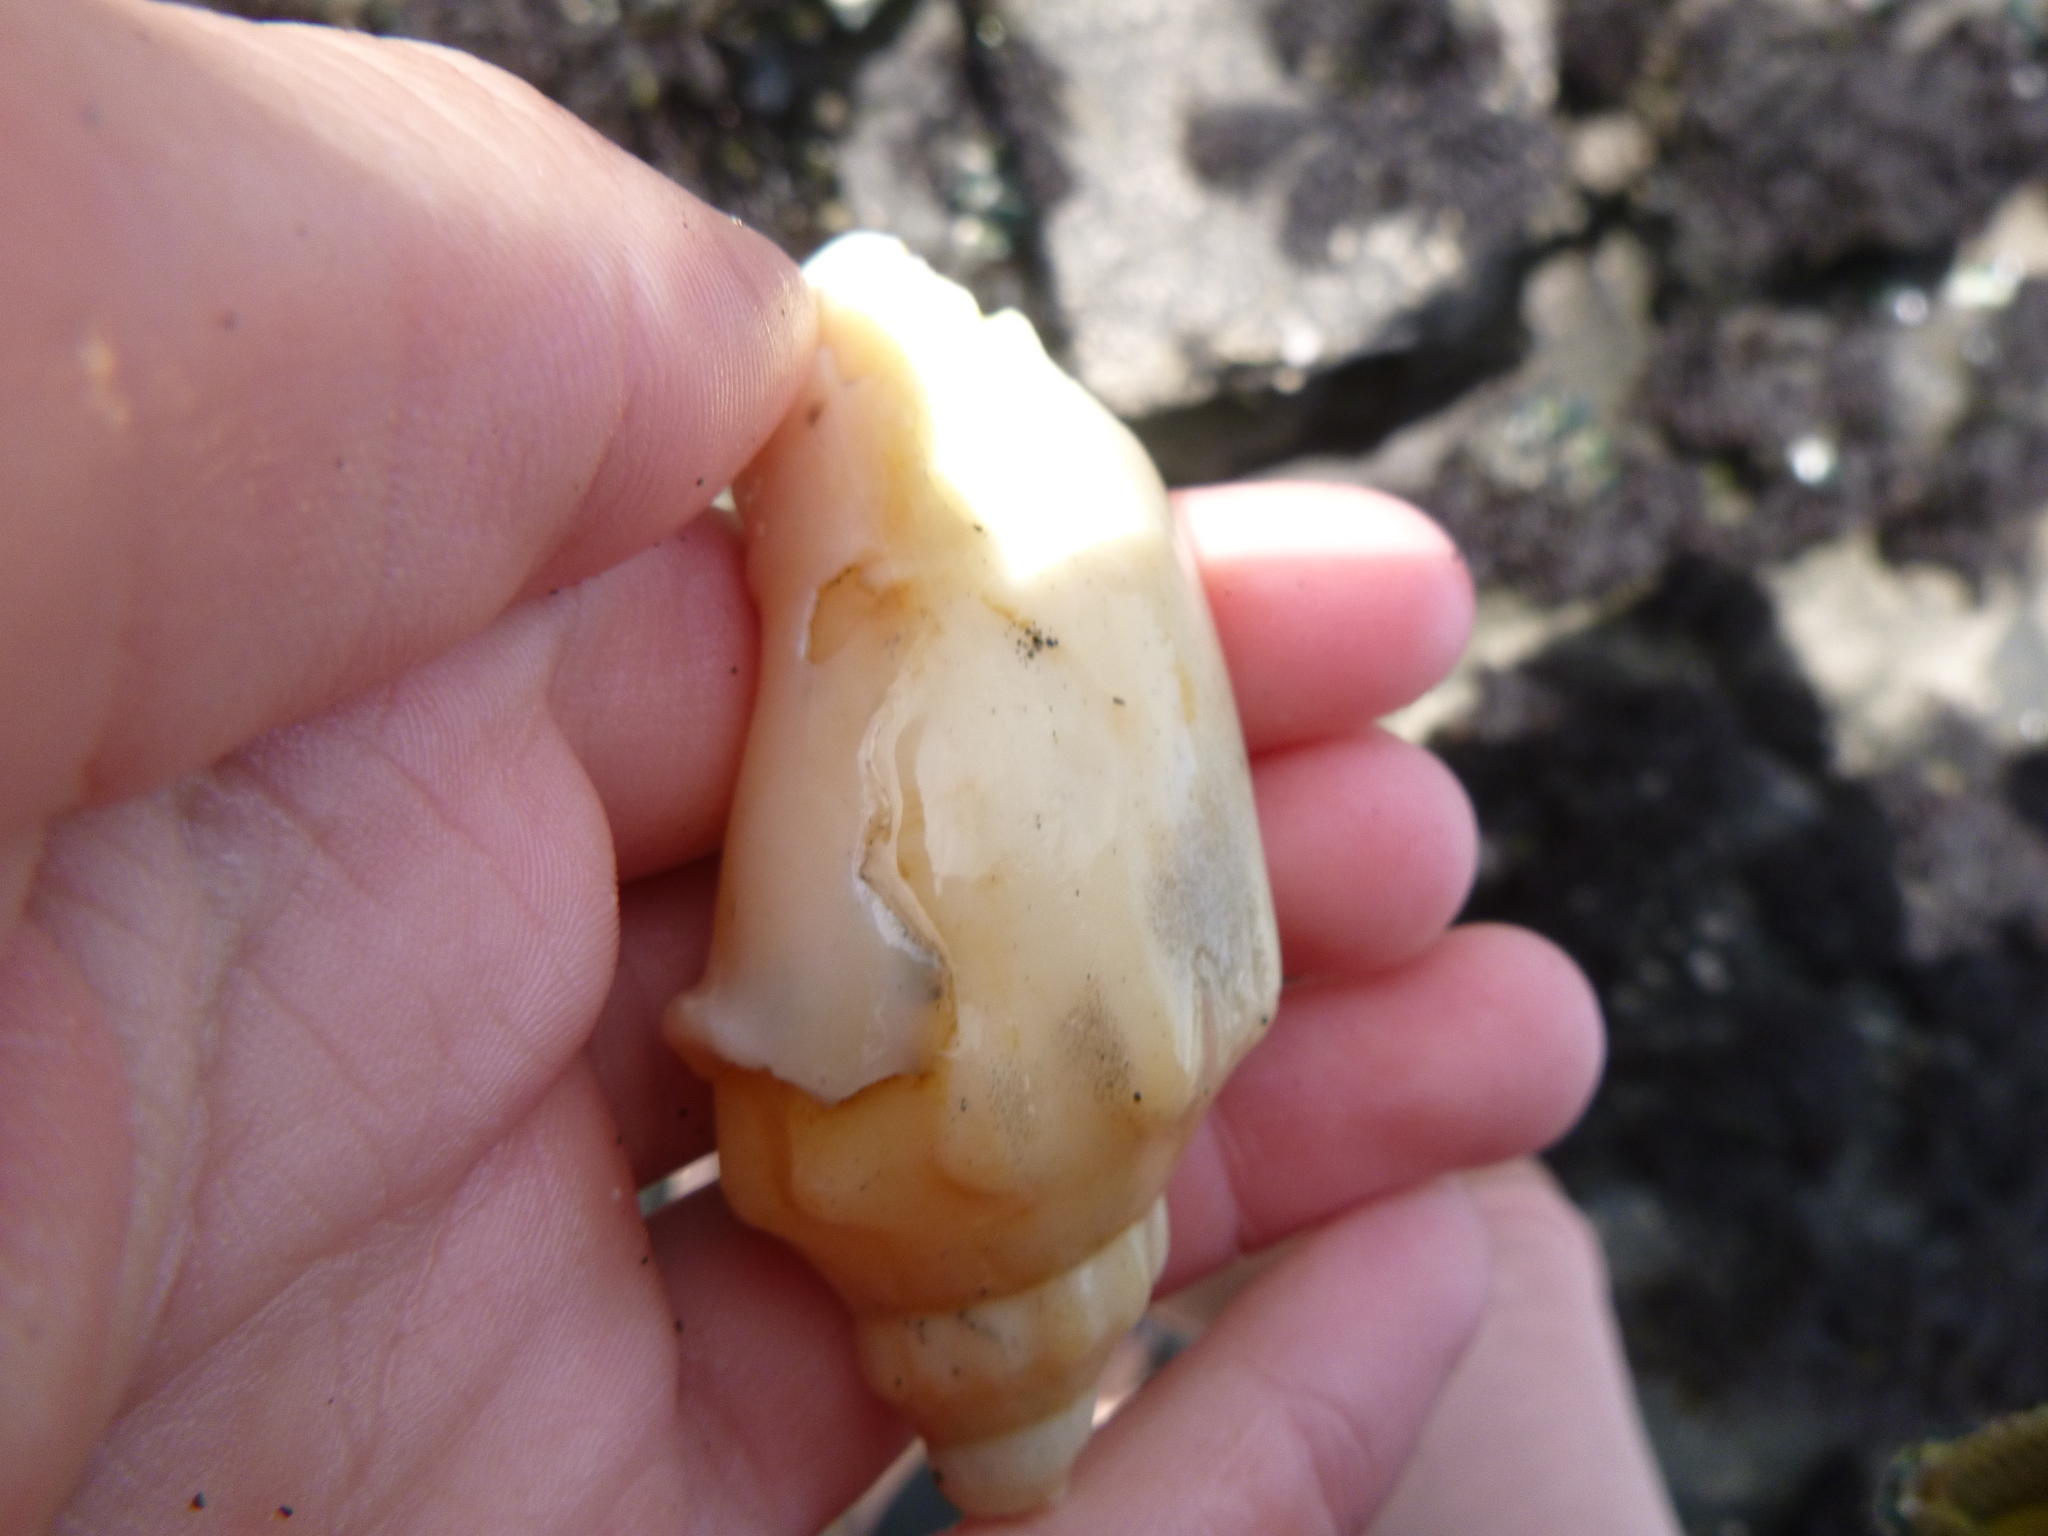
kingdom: Animalia
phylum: Mollusca
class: Gastropoda
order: Neogastropoda
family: Volutidae
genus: Alcithoe
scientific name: Alcithoe arabica
